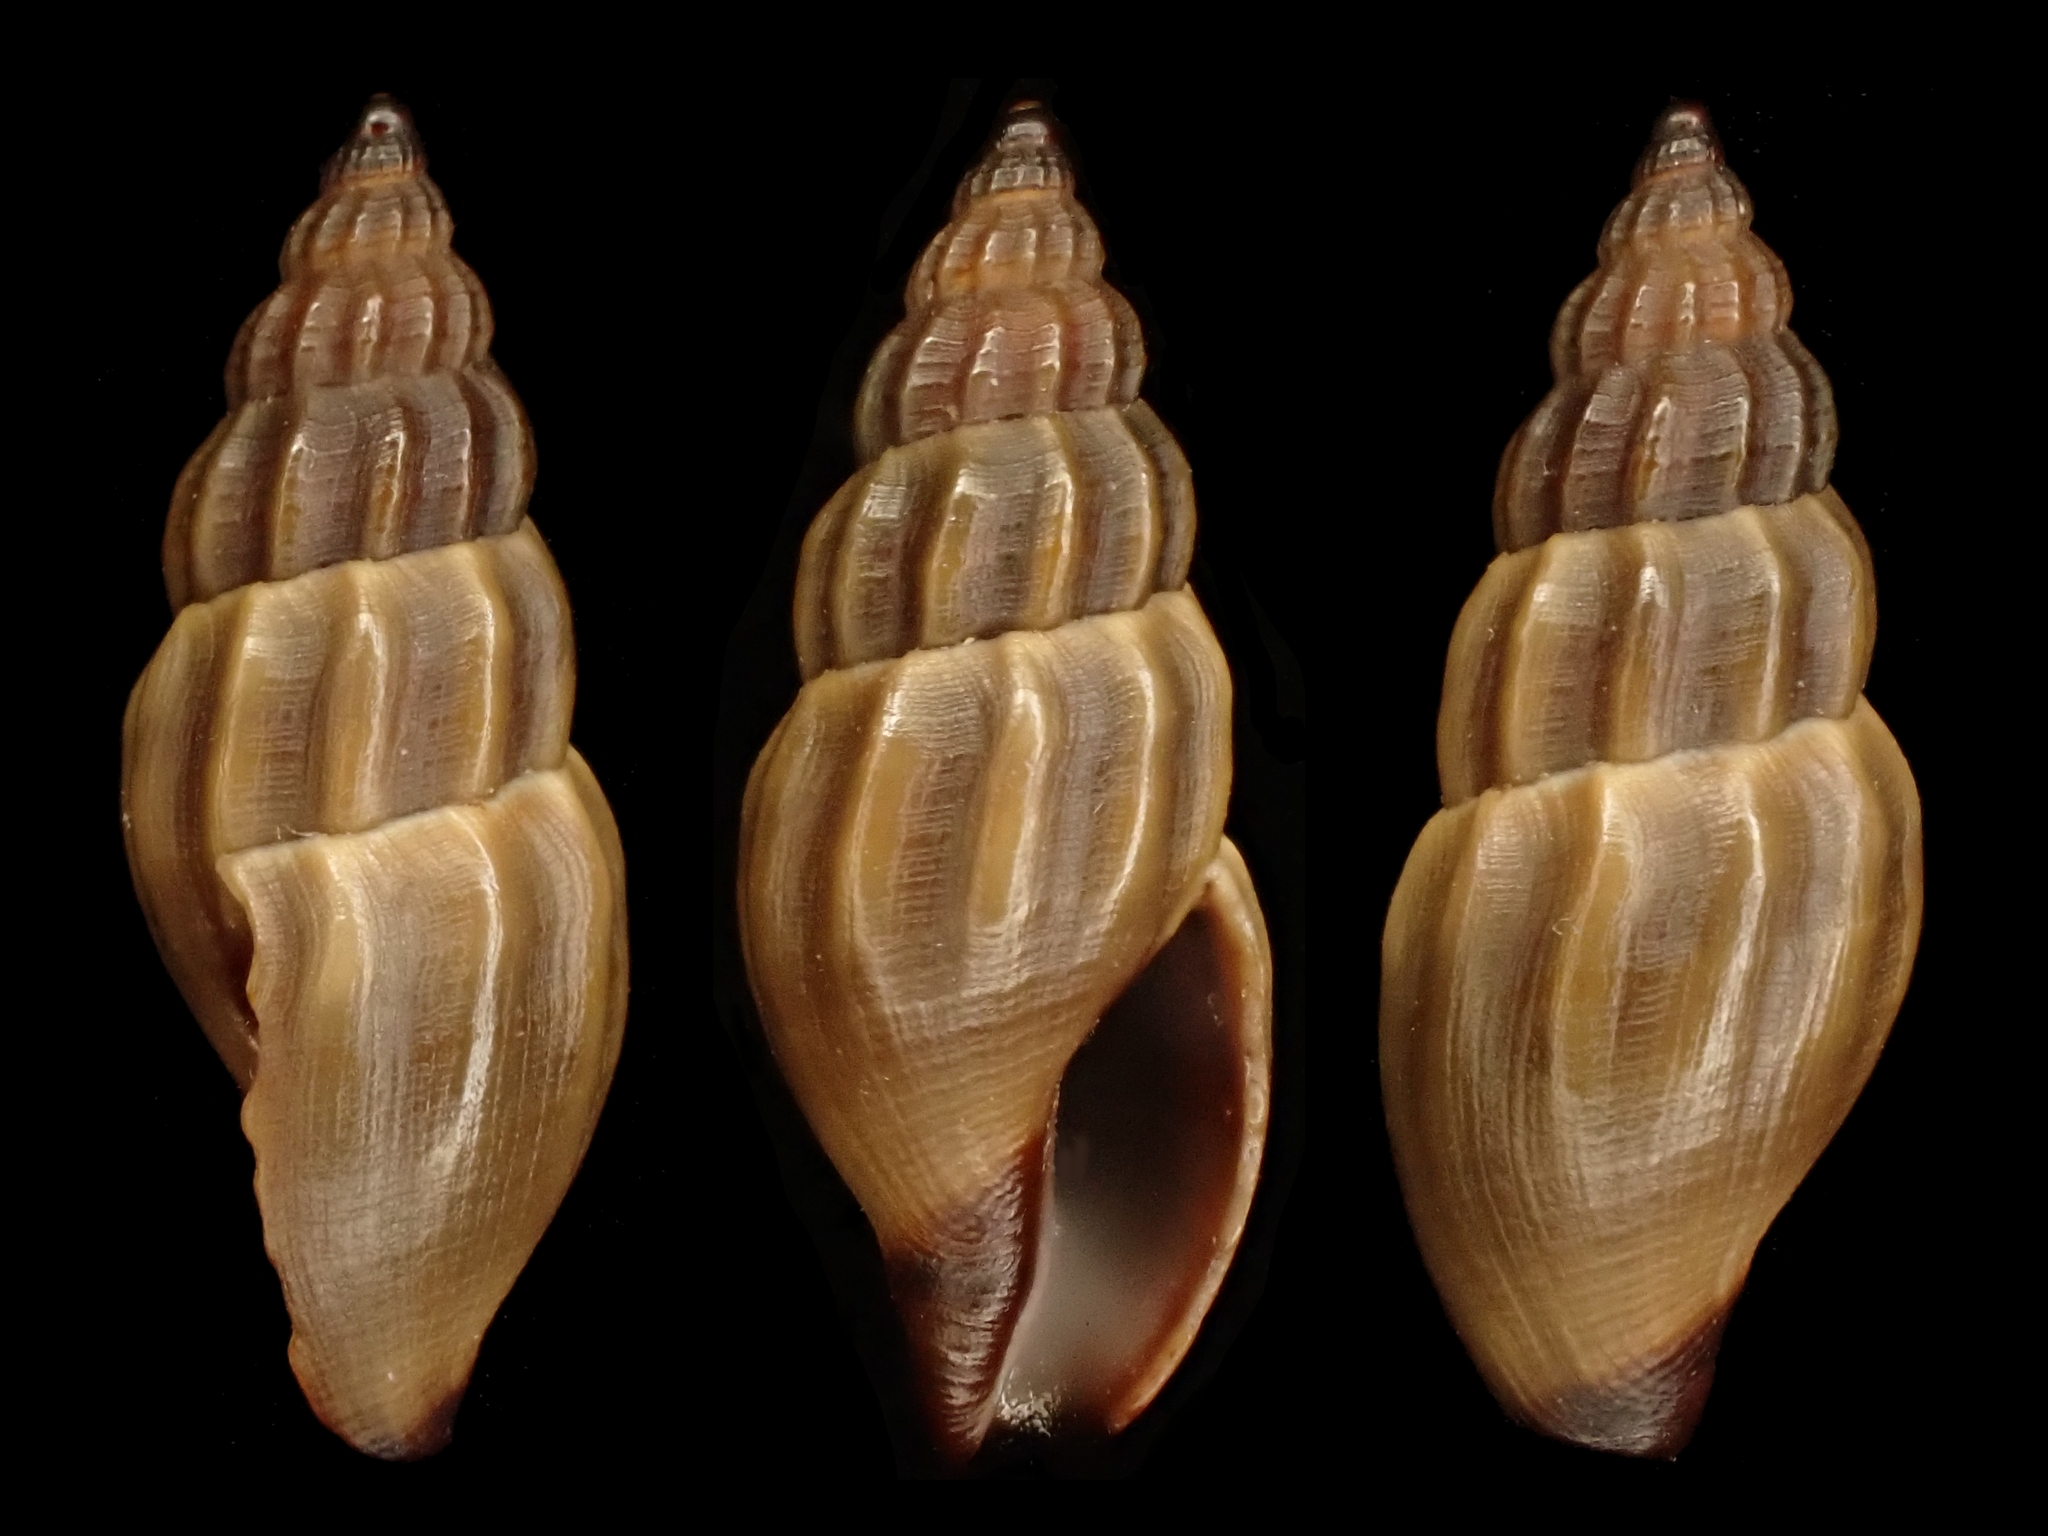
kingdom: Animalia
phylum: Mollusca
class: Gastropoda
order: Neogastropoda
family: Mangeliidae
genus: Neoguraleus
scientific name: Neoguraleus lyallensis
